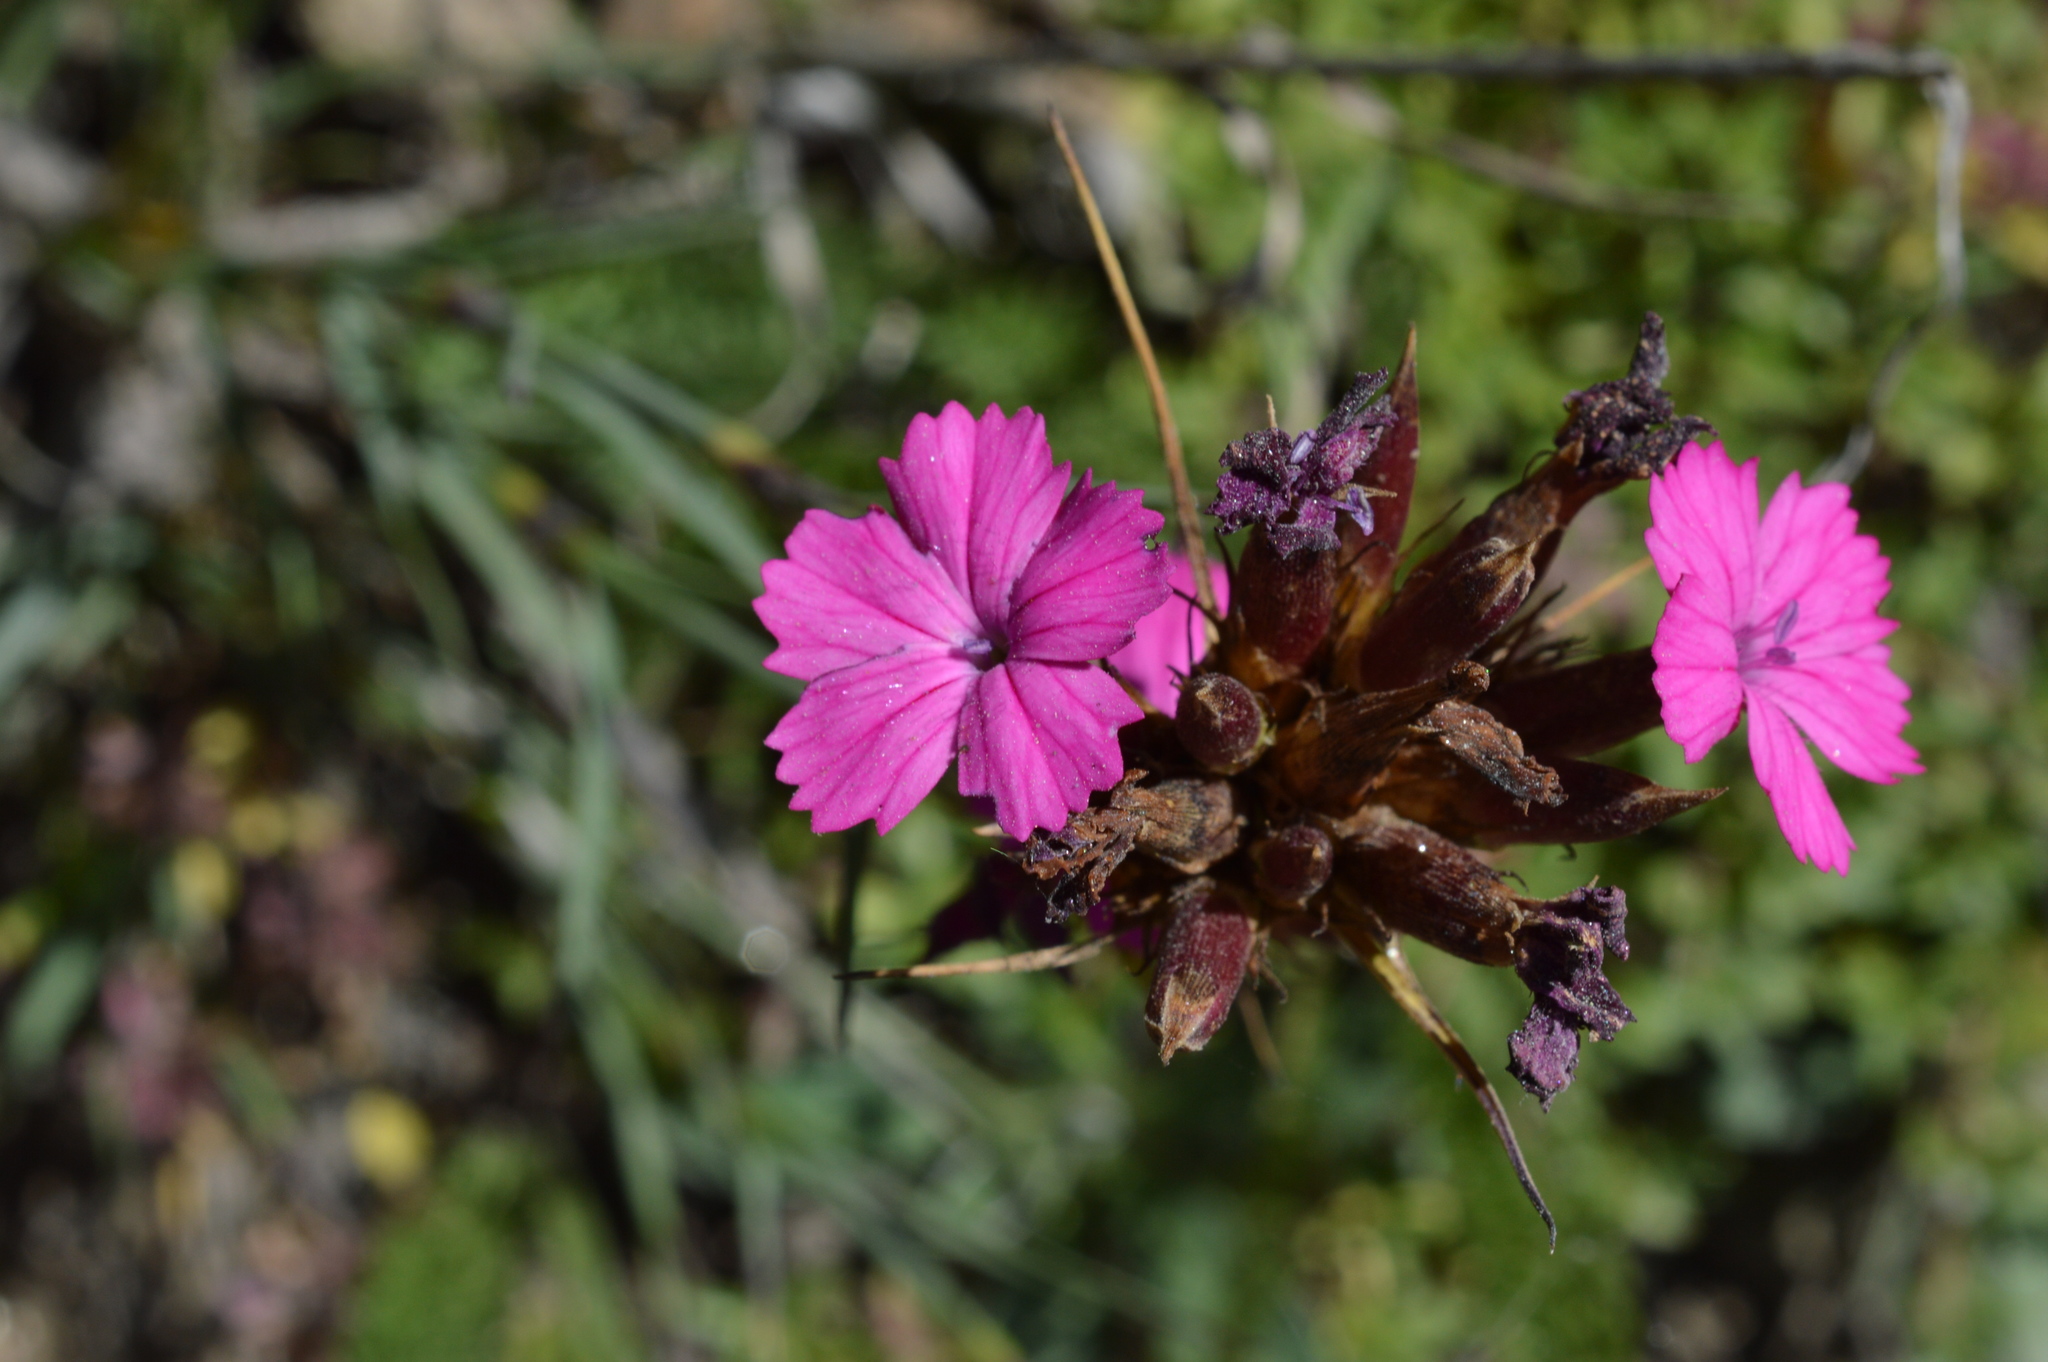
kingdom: Plantae
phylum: Tracheophyta
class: Magnoliopsida
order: Caryophyllales
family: Caryophyllaceae
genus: Dianthus
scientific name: Dianthus carthusianorum
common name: Carthusian pink
